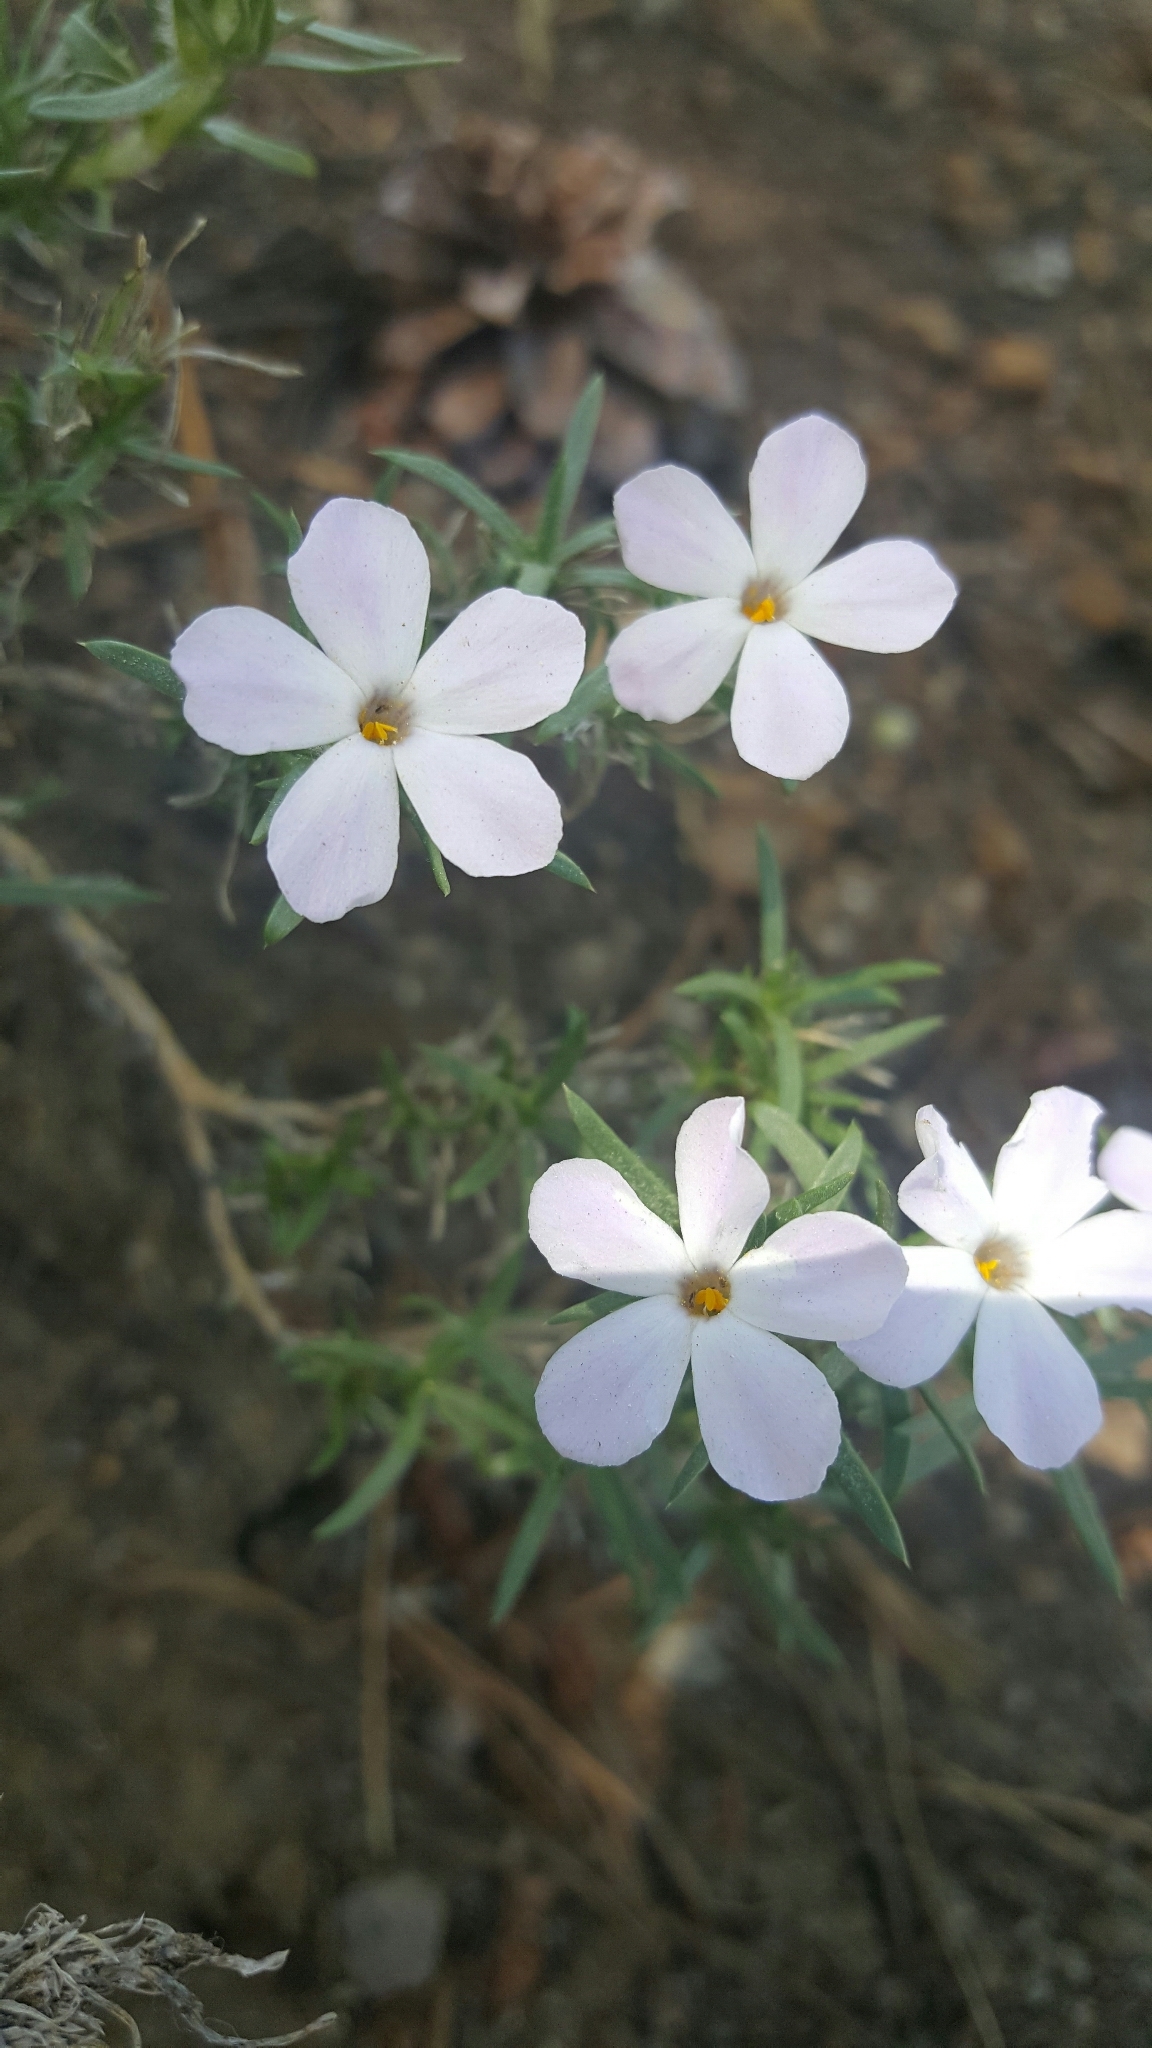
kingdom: Plantae
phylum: Tracheophyta
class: Magnoliopsida
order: Ericales
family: Polemoniaceae
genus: Phlox
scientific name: Phlox diffusa
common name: Mat phlox
